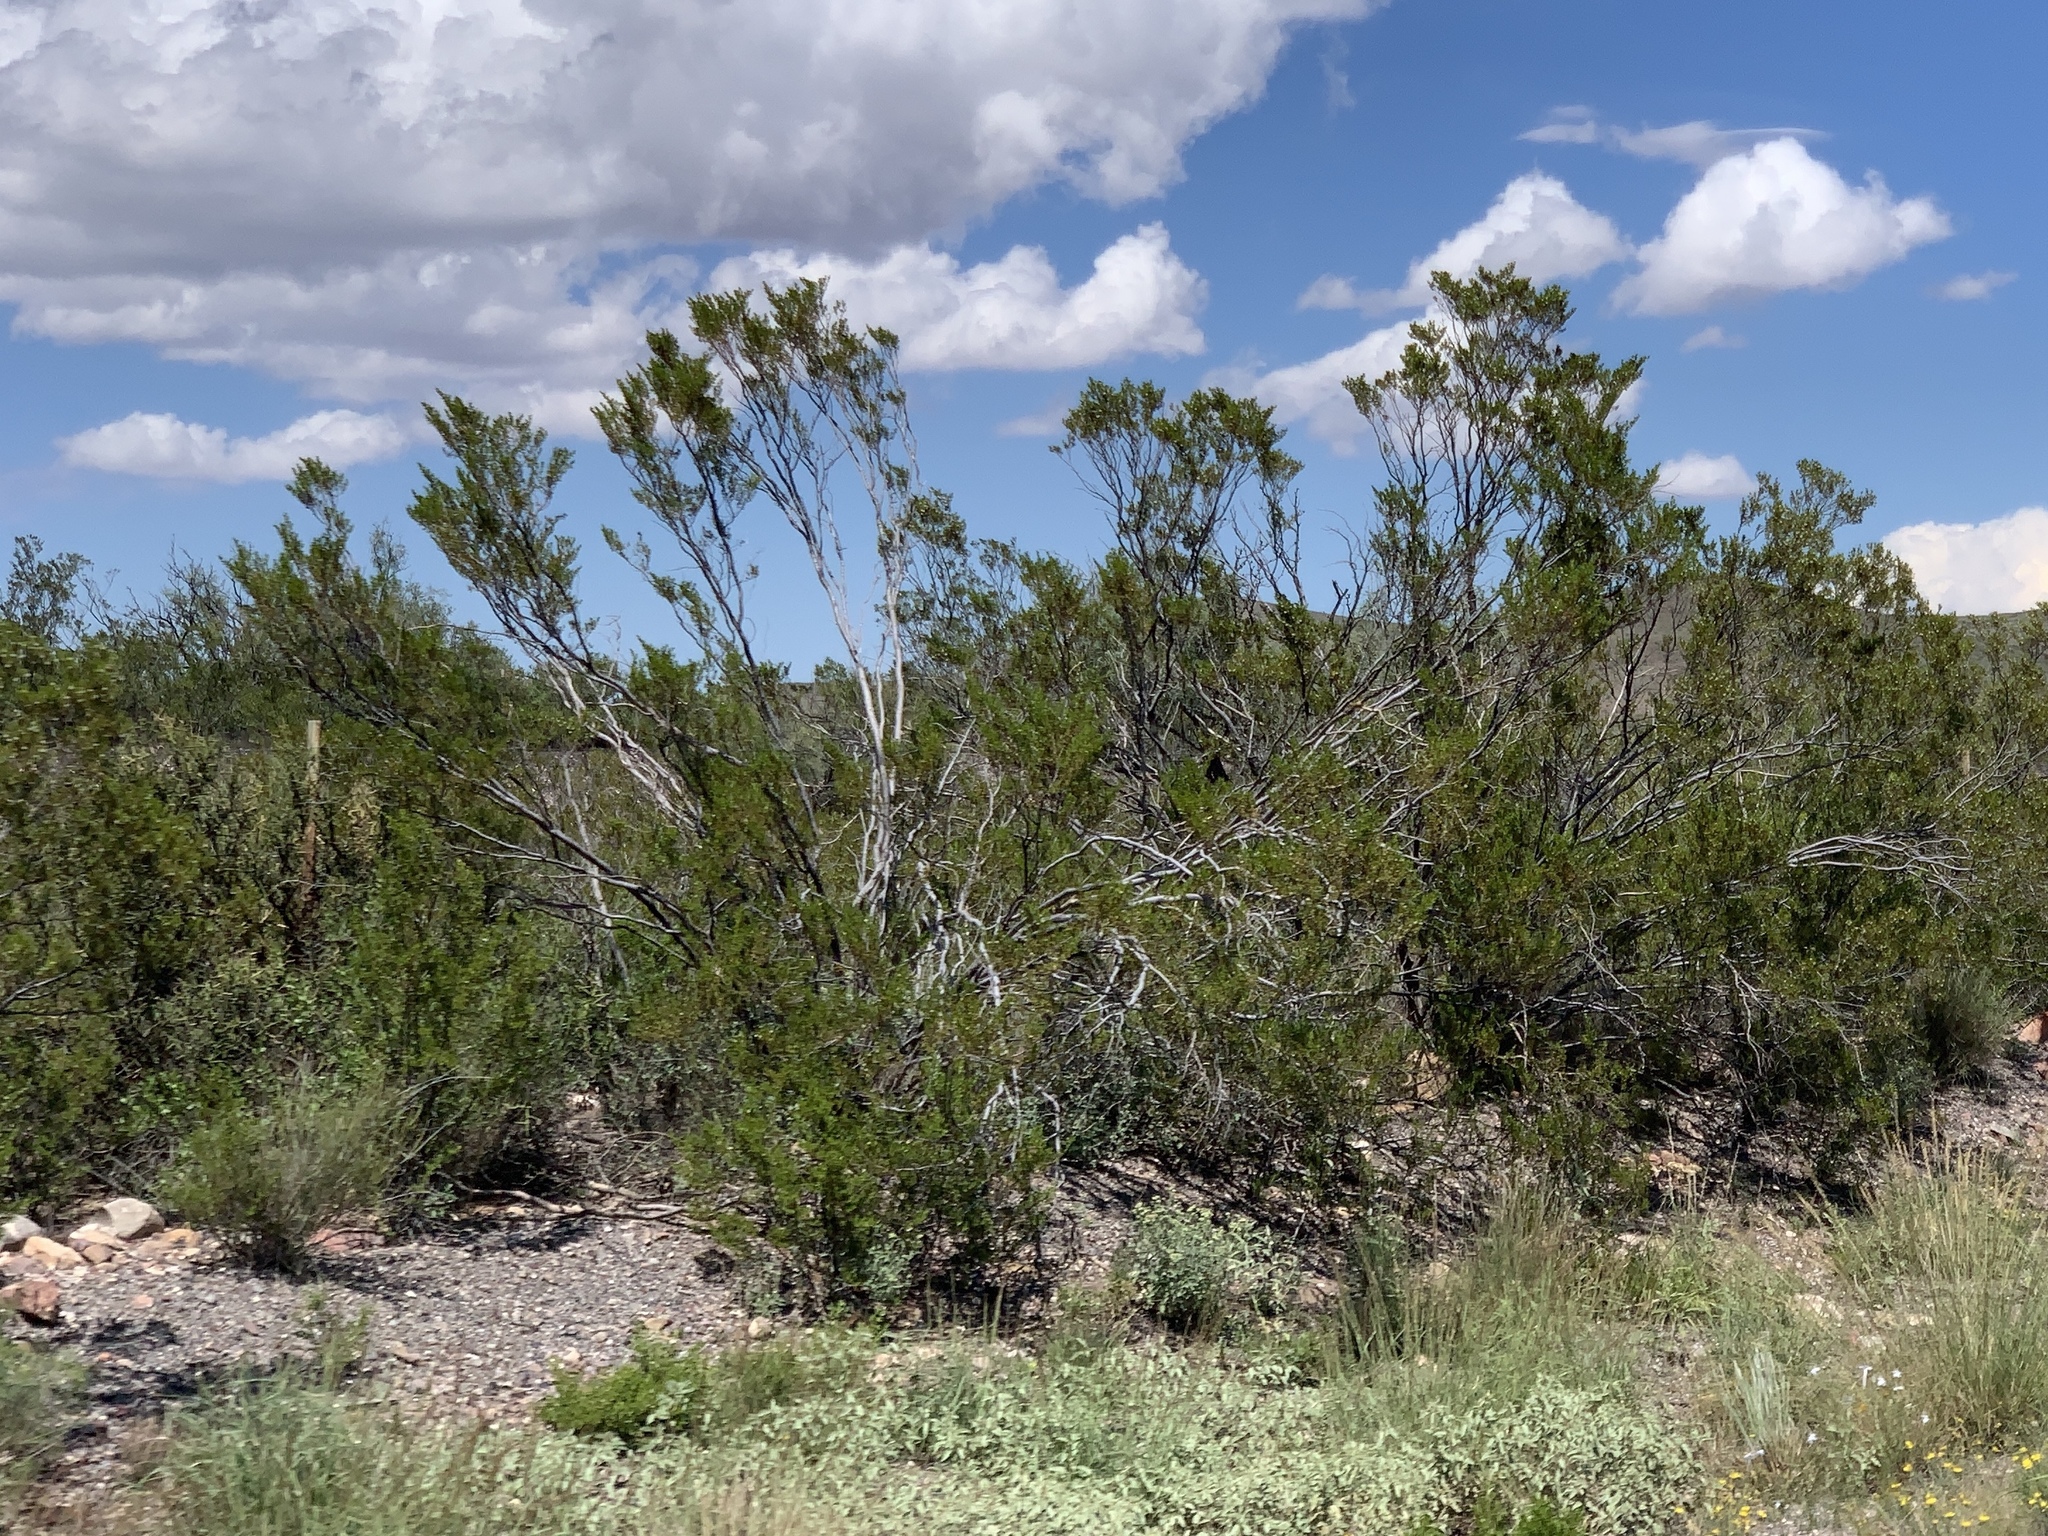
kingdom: Plantae
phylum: Tracheophyta
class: Magnoliopsida
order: Zygophyllales
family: Zygophyllaceae
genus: Larrea
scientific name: Larrea tridentata
